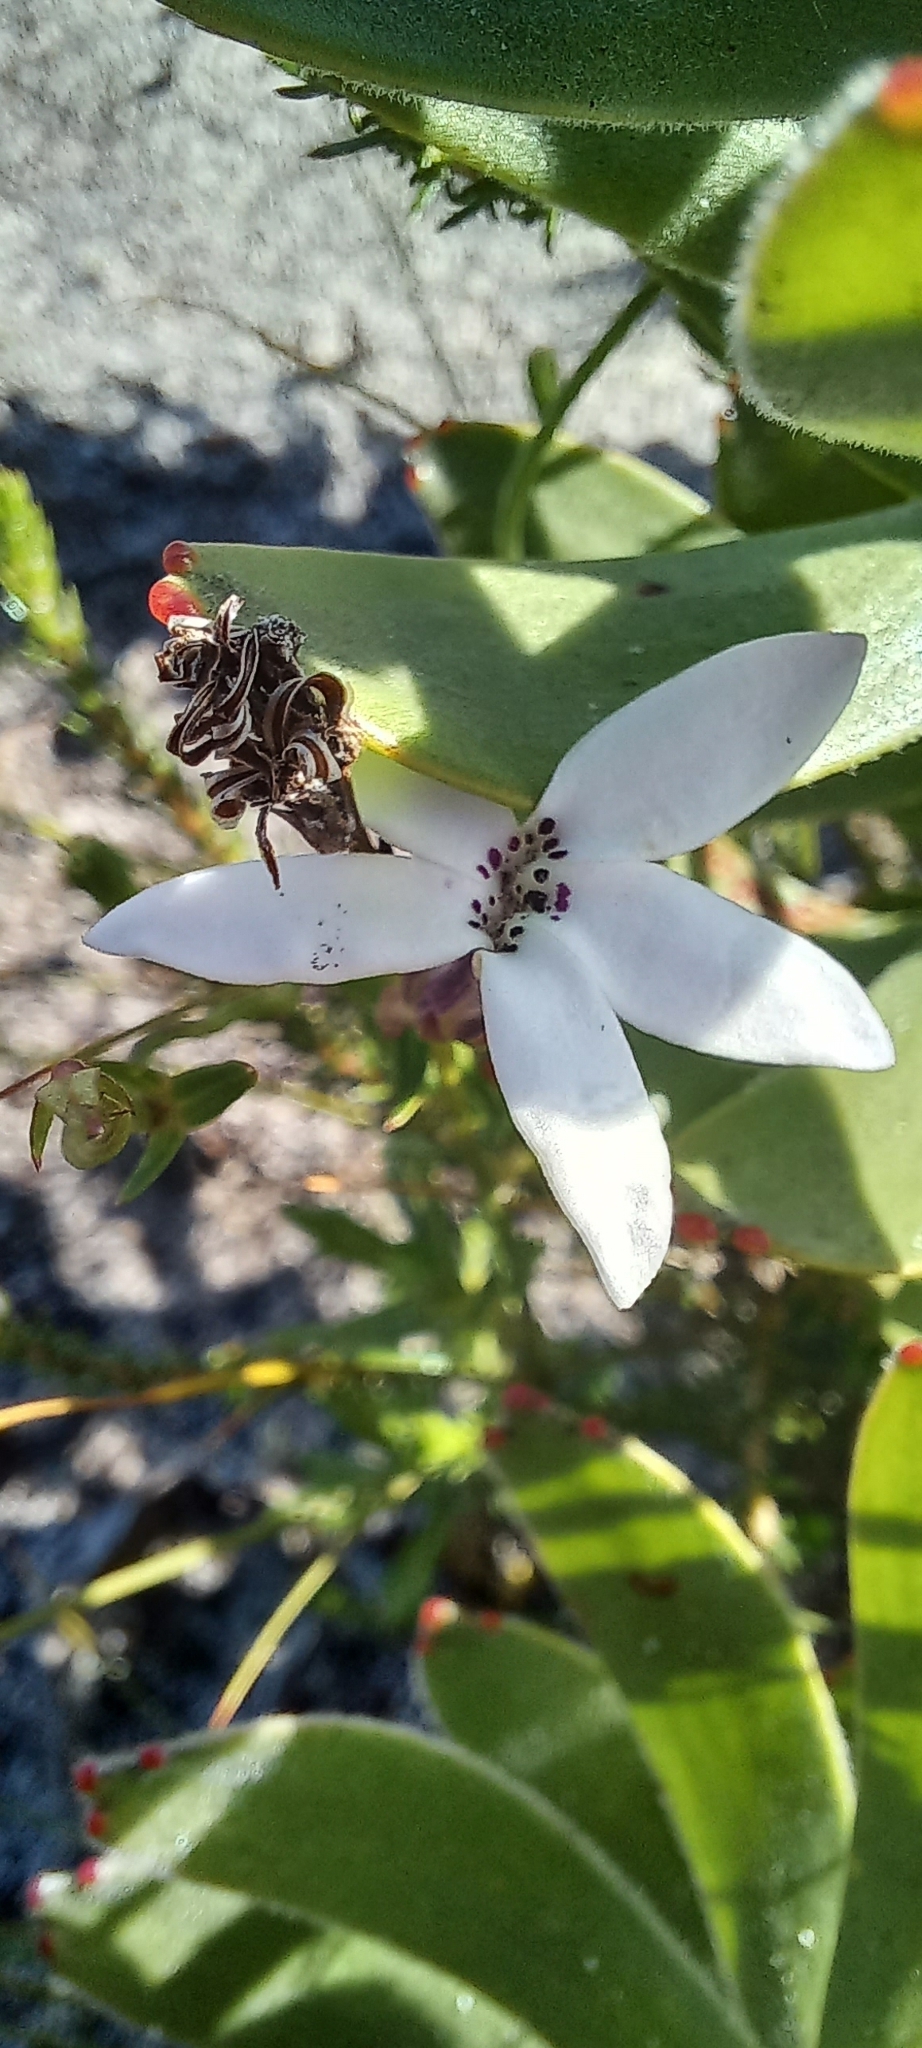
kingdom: Plantae
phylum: Tracheophyta
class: Magnoliopsida
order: Asterales
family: Campanulaceae
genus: Cyphia
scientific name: Cyphia volubilis
